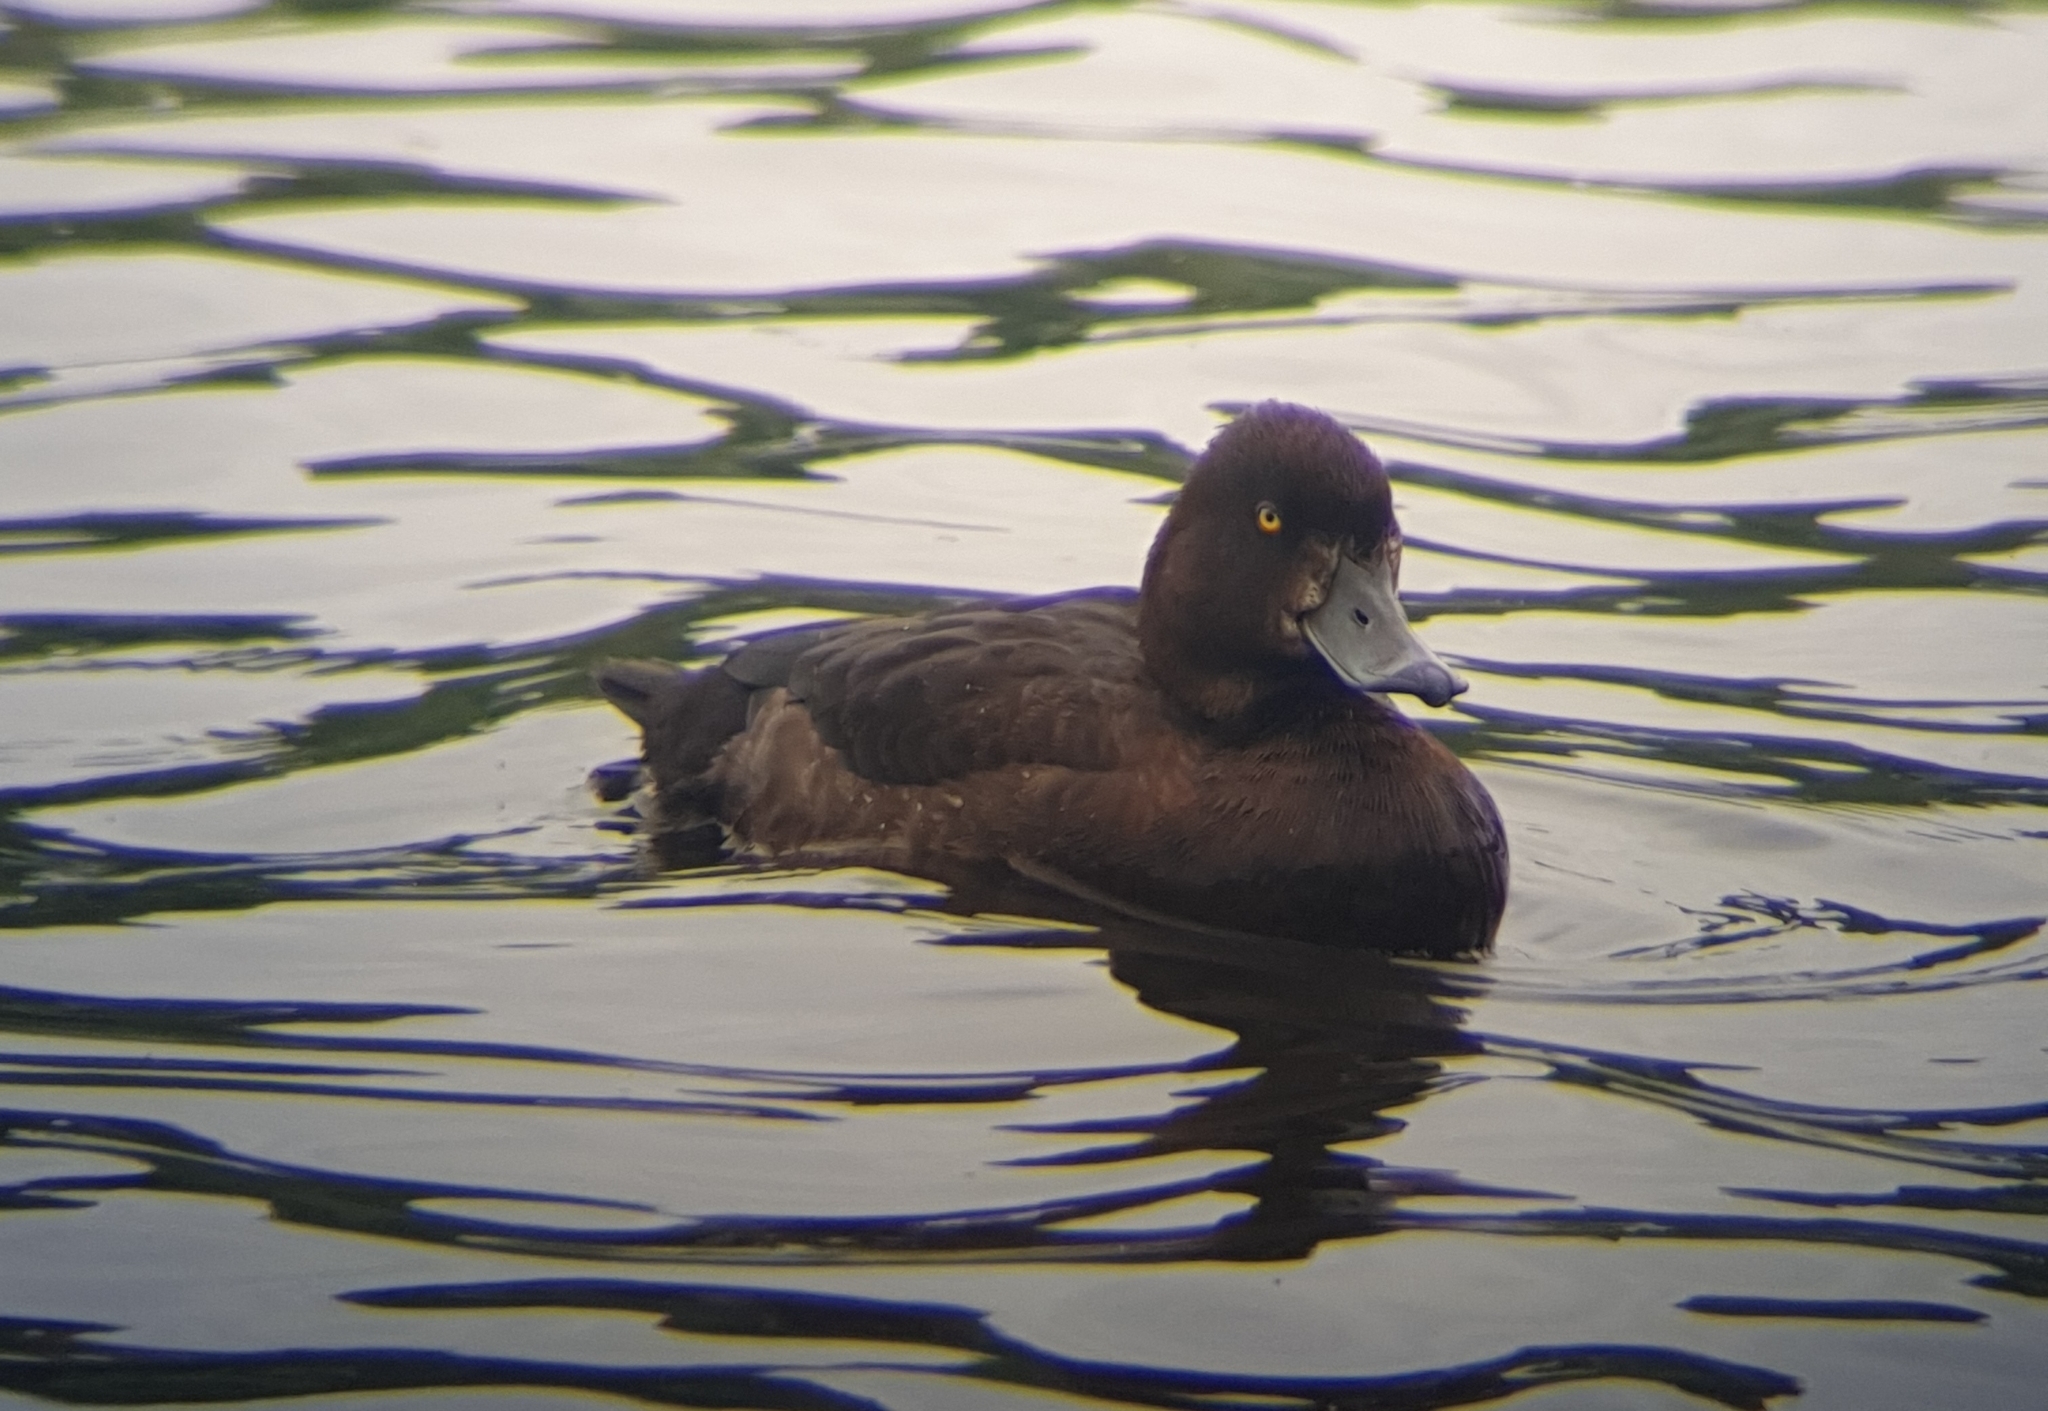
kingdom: Animalia
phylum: Chordata
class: Aves
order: Anseriformes
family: Anatidae
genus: Aythya
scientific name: Aythya fuligula
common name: Tufted duck
